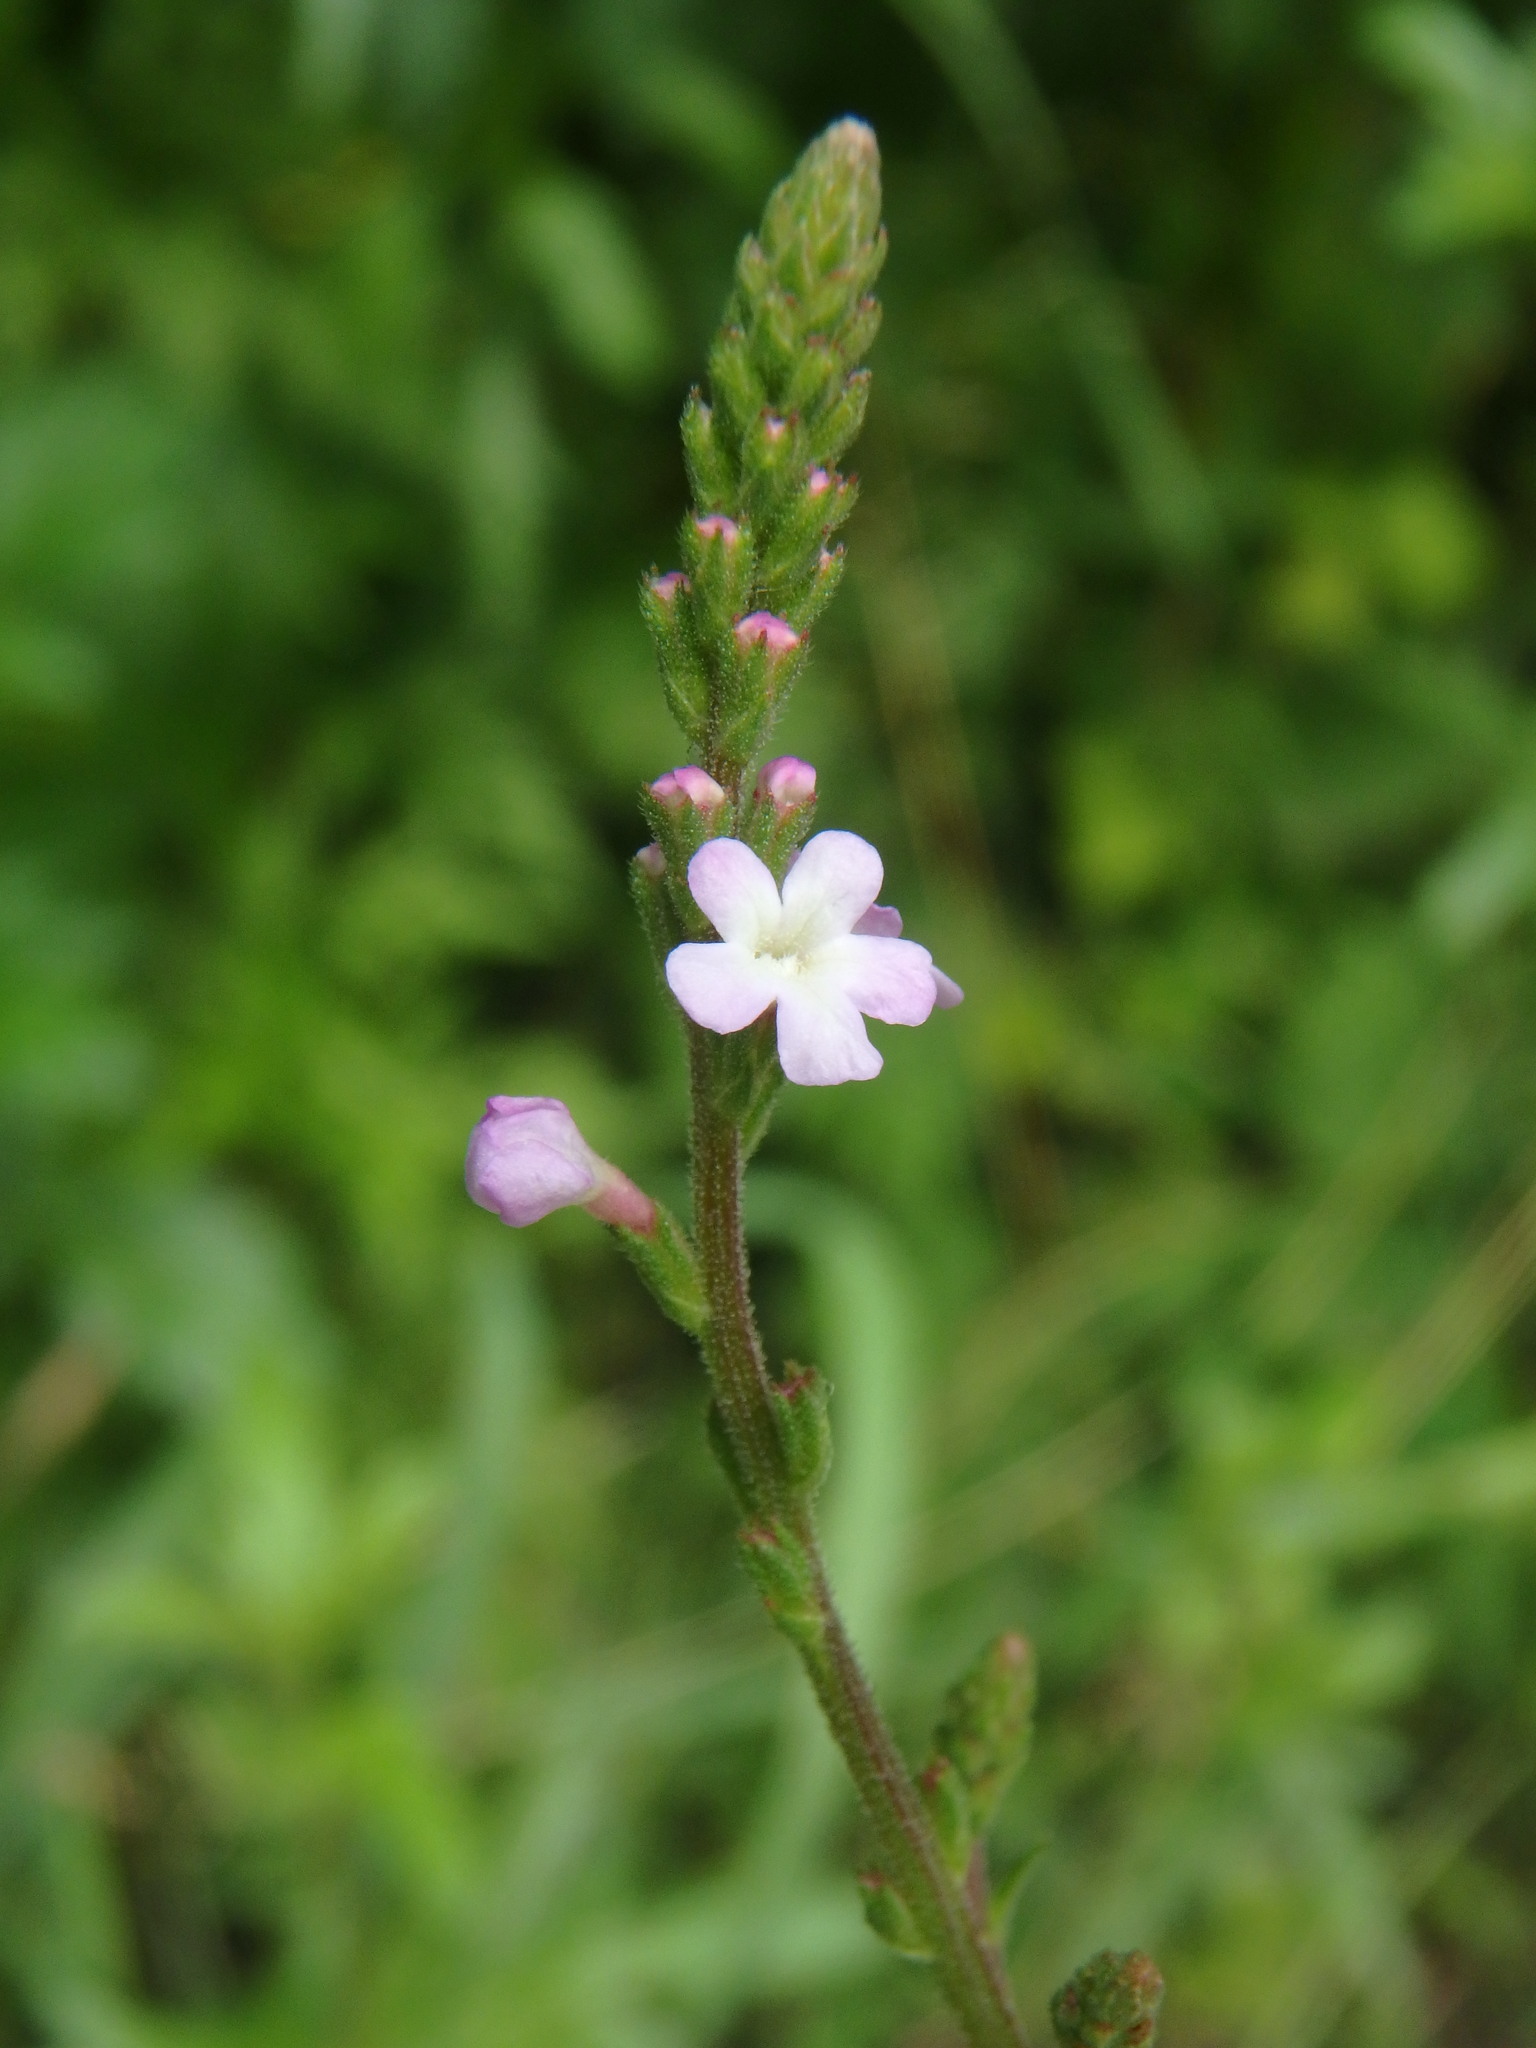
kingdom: Plantae
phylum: Tracheophyta
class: Magnoliopsida
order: Lamiales
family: Verbenaceae
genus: Verbena
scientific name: Verbena officinalis
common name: Vervain
